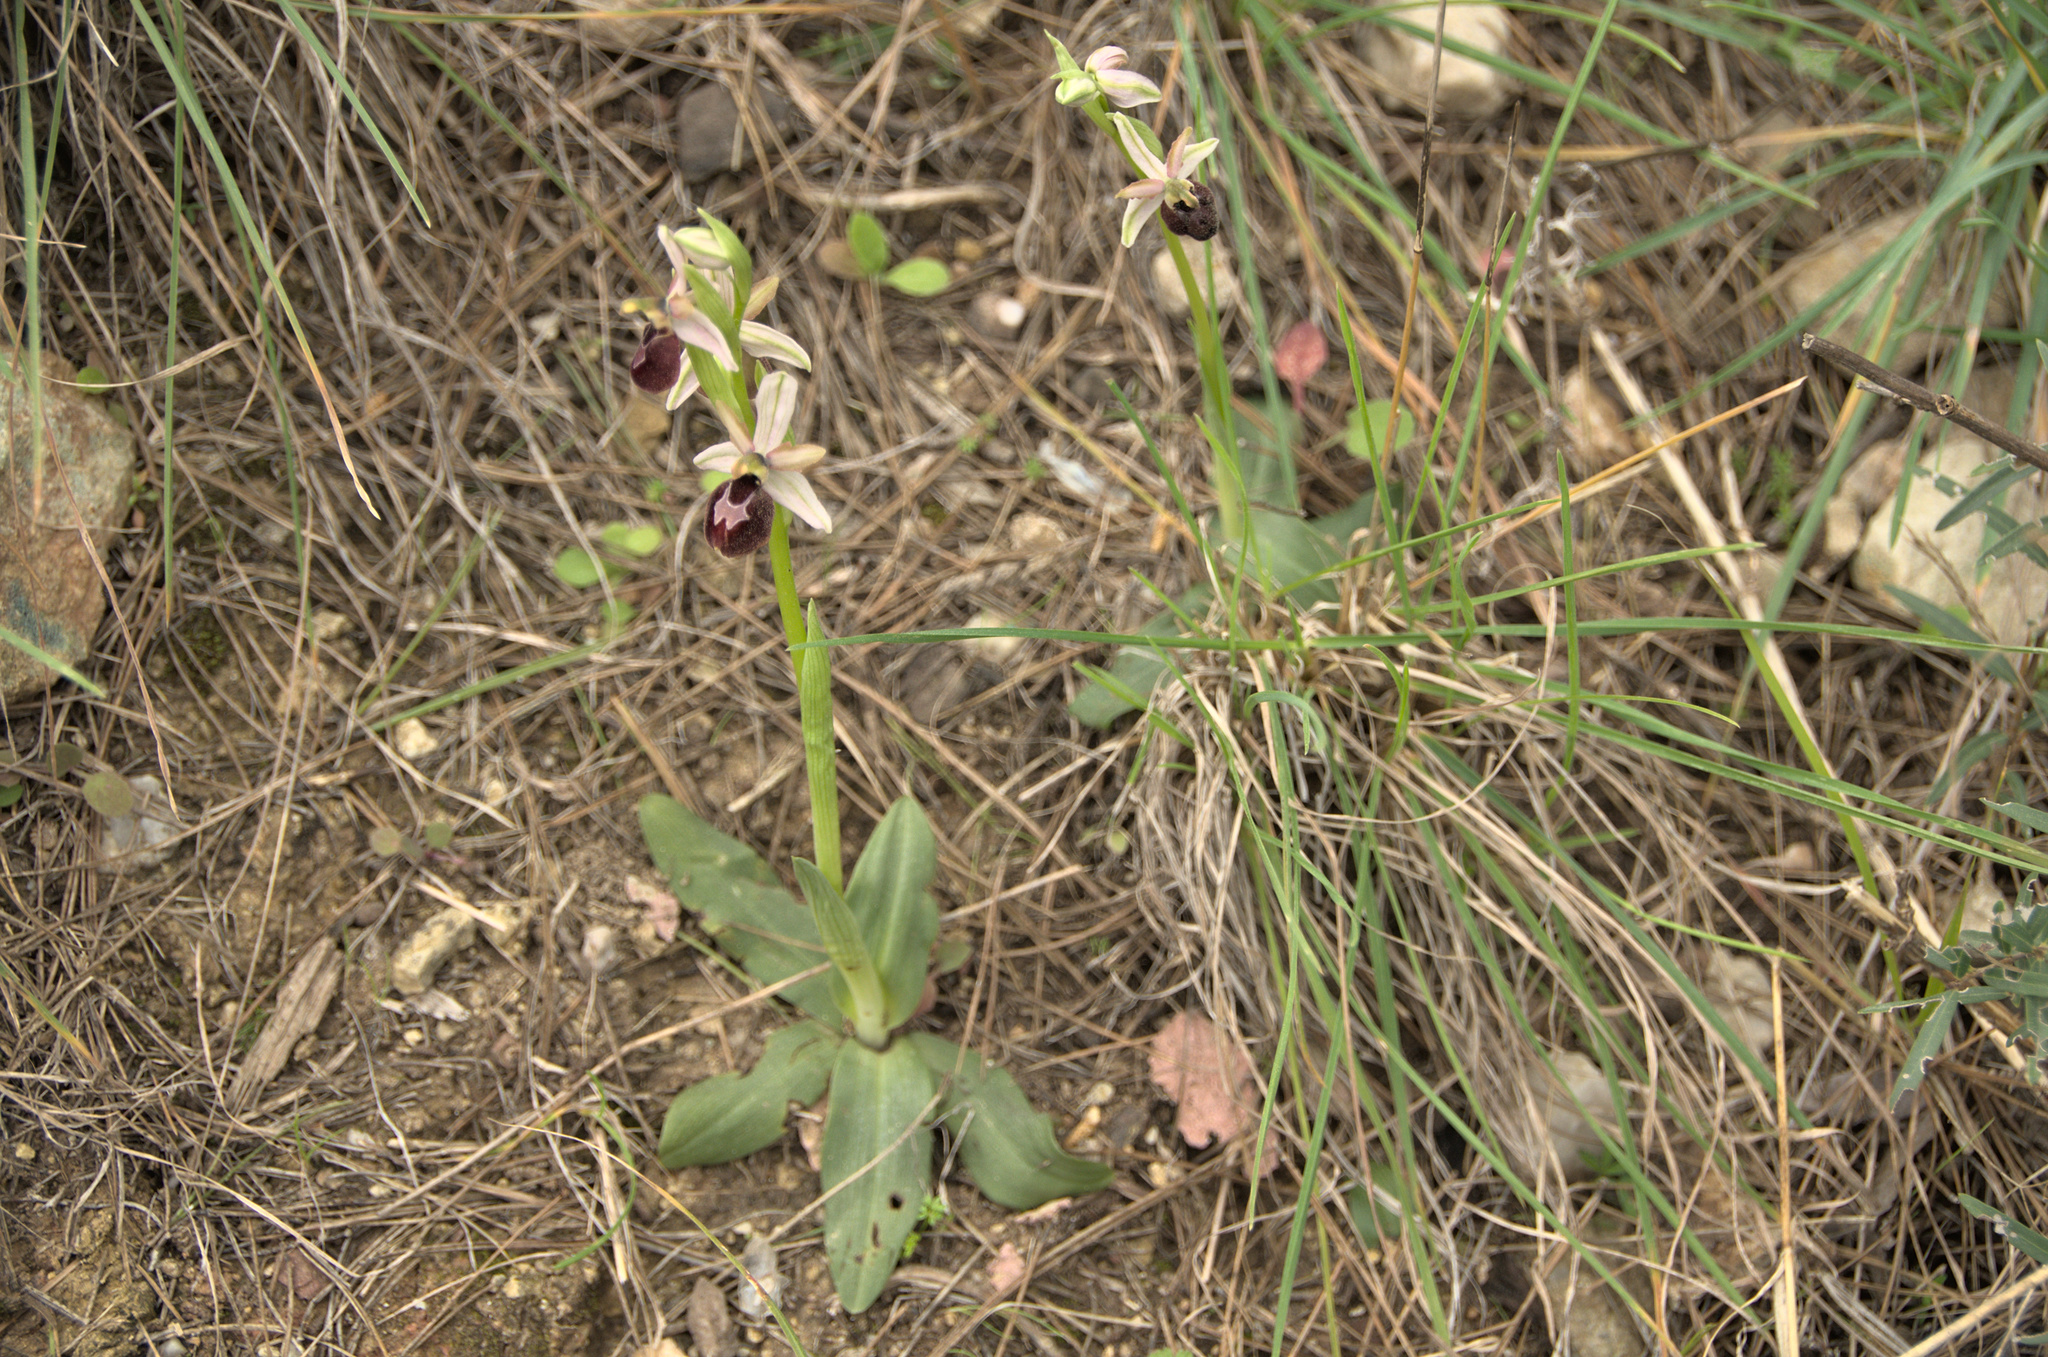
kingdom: Plantae
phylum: Tracheophyta
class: Liliopsida
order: Asparagales
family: Orchidaceae
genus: Ophrys
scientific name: Ophrys arachnitiformis
